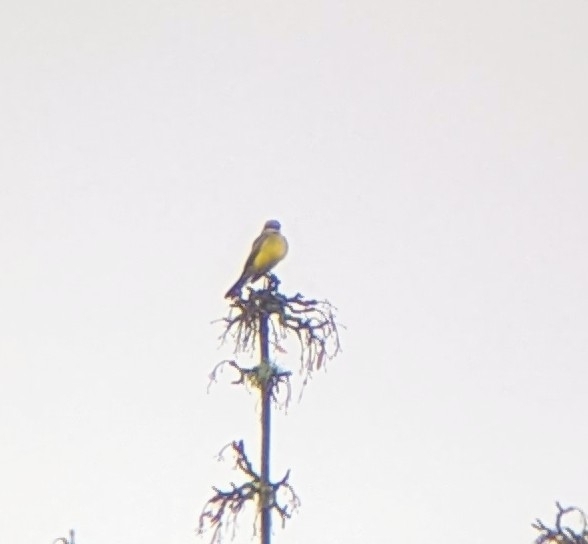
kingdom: Animalia
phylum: Chordata
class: Aves
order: Passeriformes
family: Tyrannidae
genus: Tyrannus
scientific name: Tyrannus melancholicus
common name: Tropical kingbird
